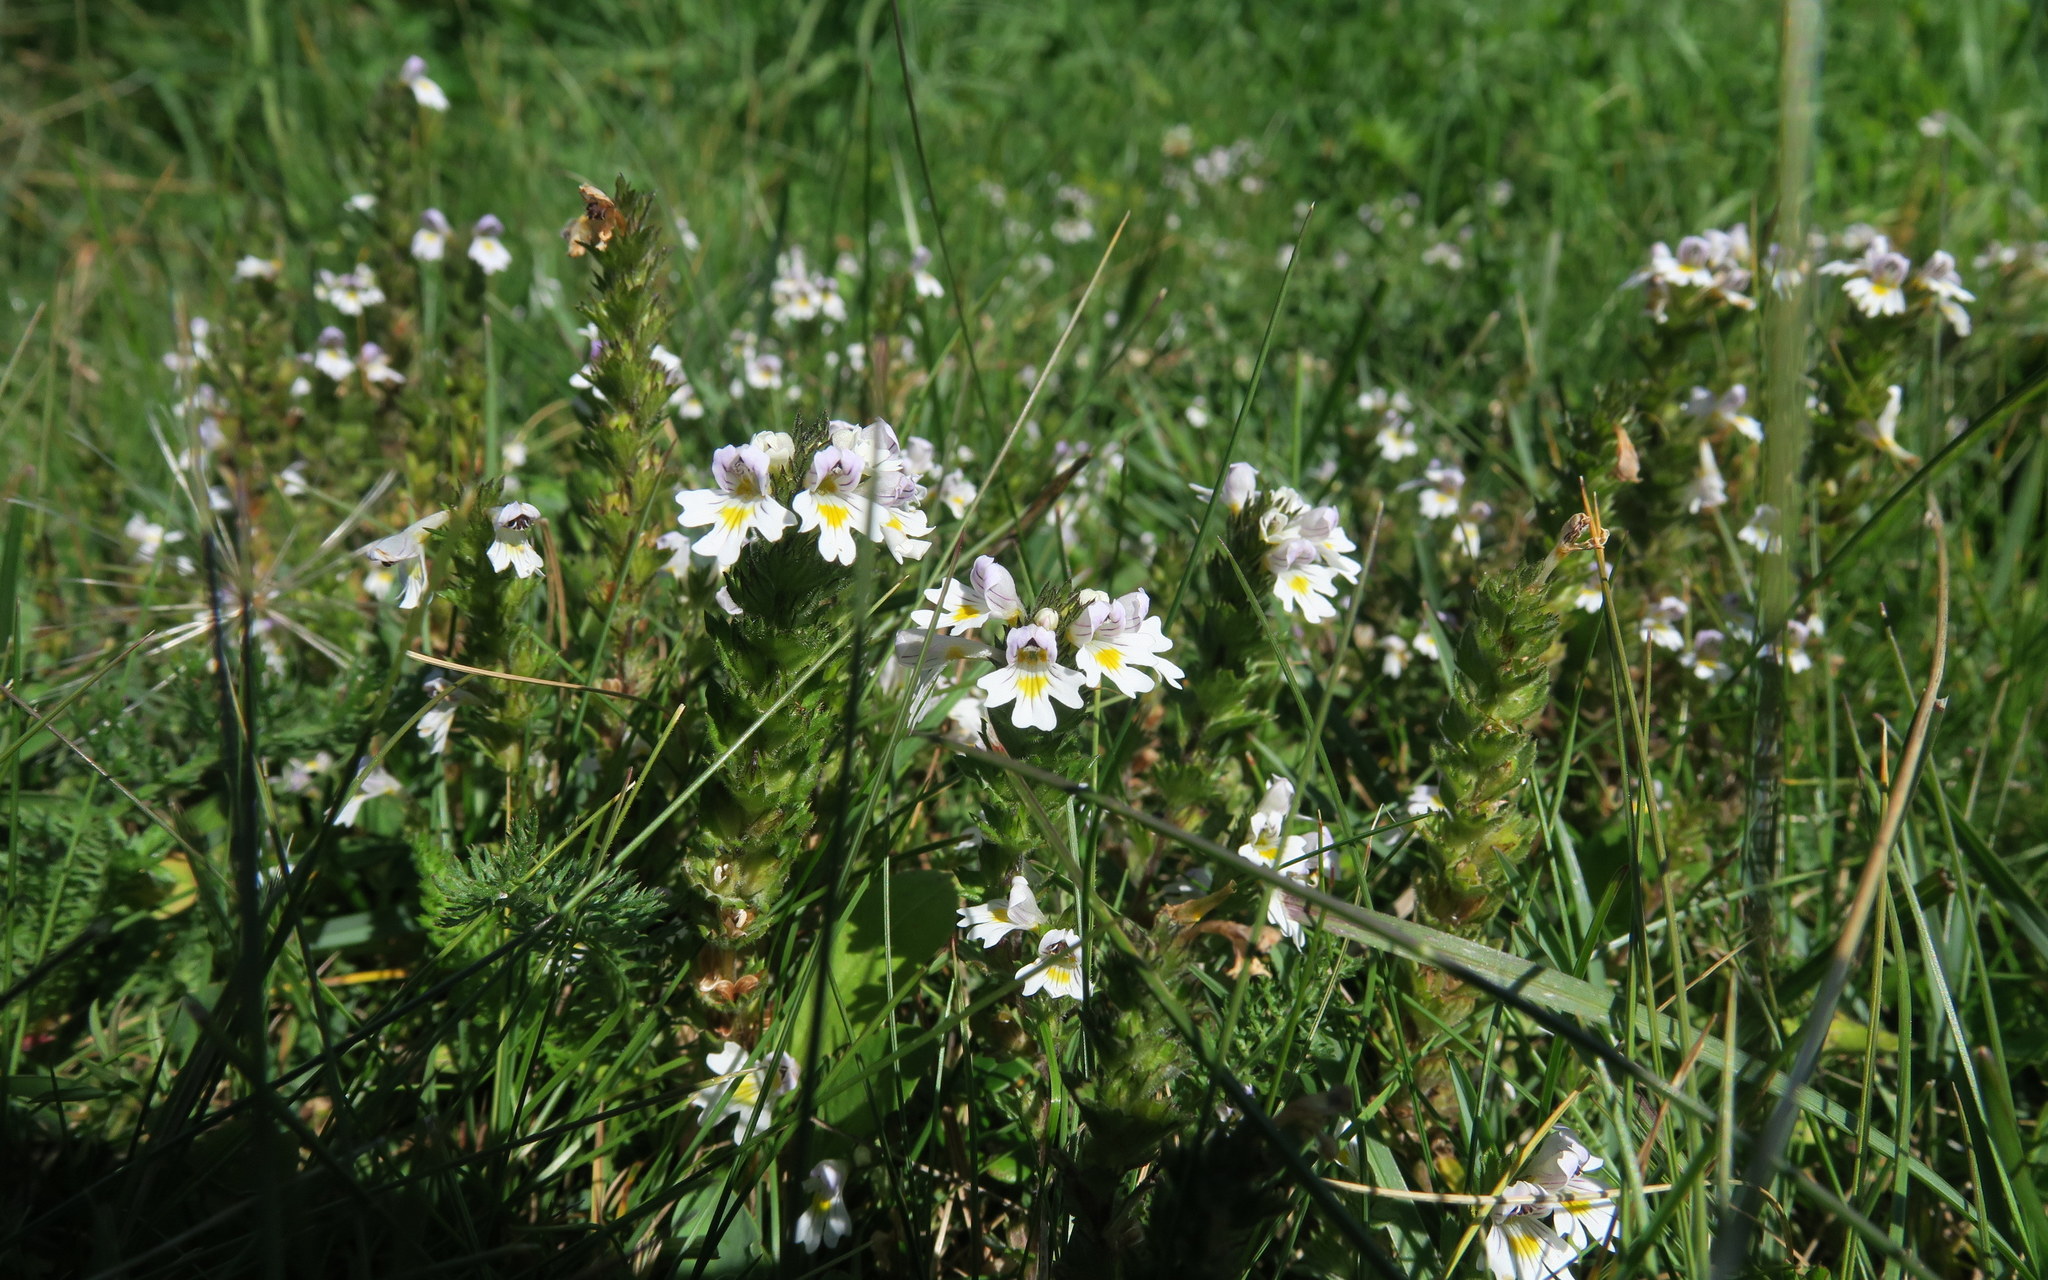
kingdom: Plantae
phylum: Tracheophyta
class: Magnoliopsida
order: Lamiales
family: Orobanchaceae
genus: Euphrasia
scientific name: Euphrasia officinalis
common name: Eyebright
